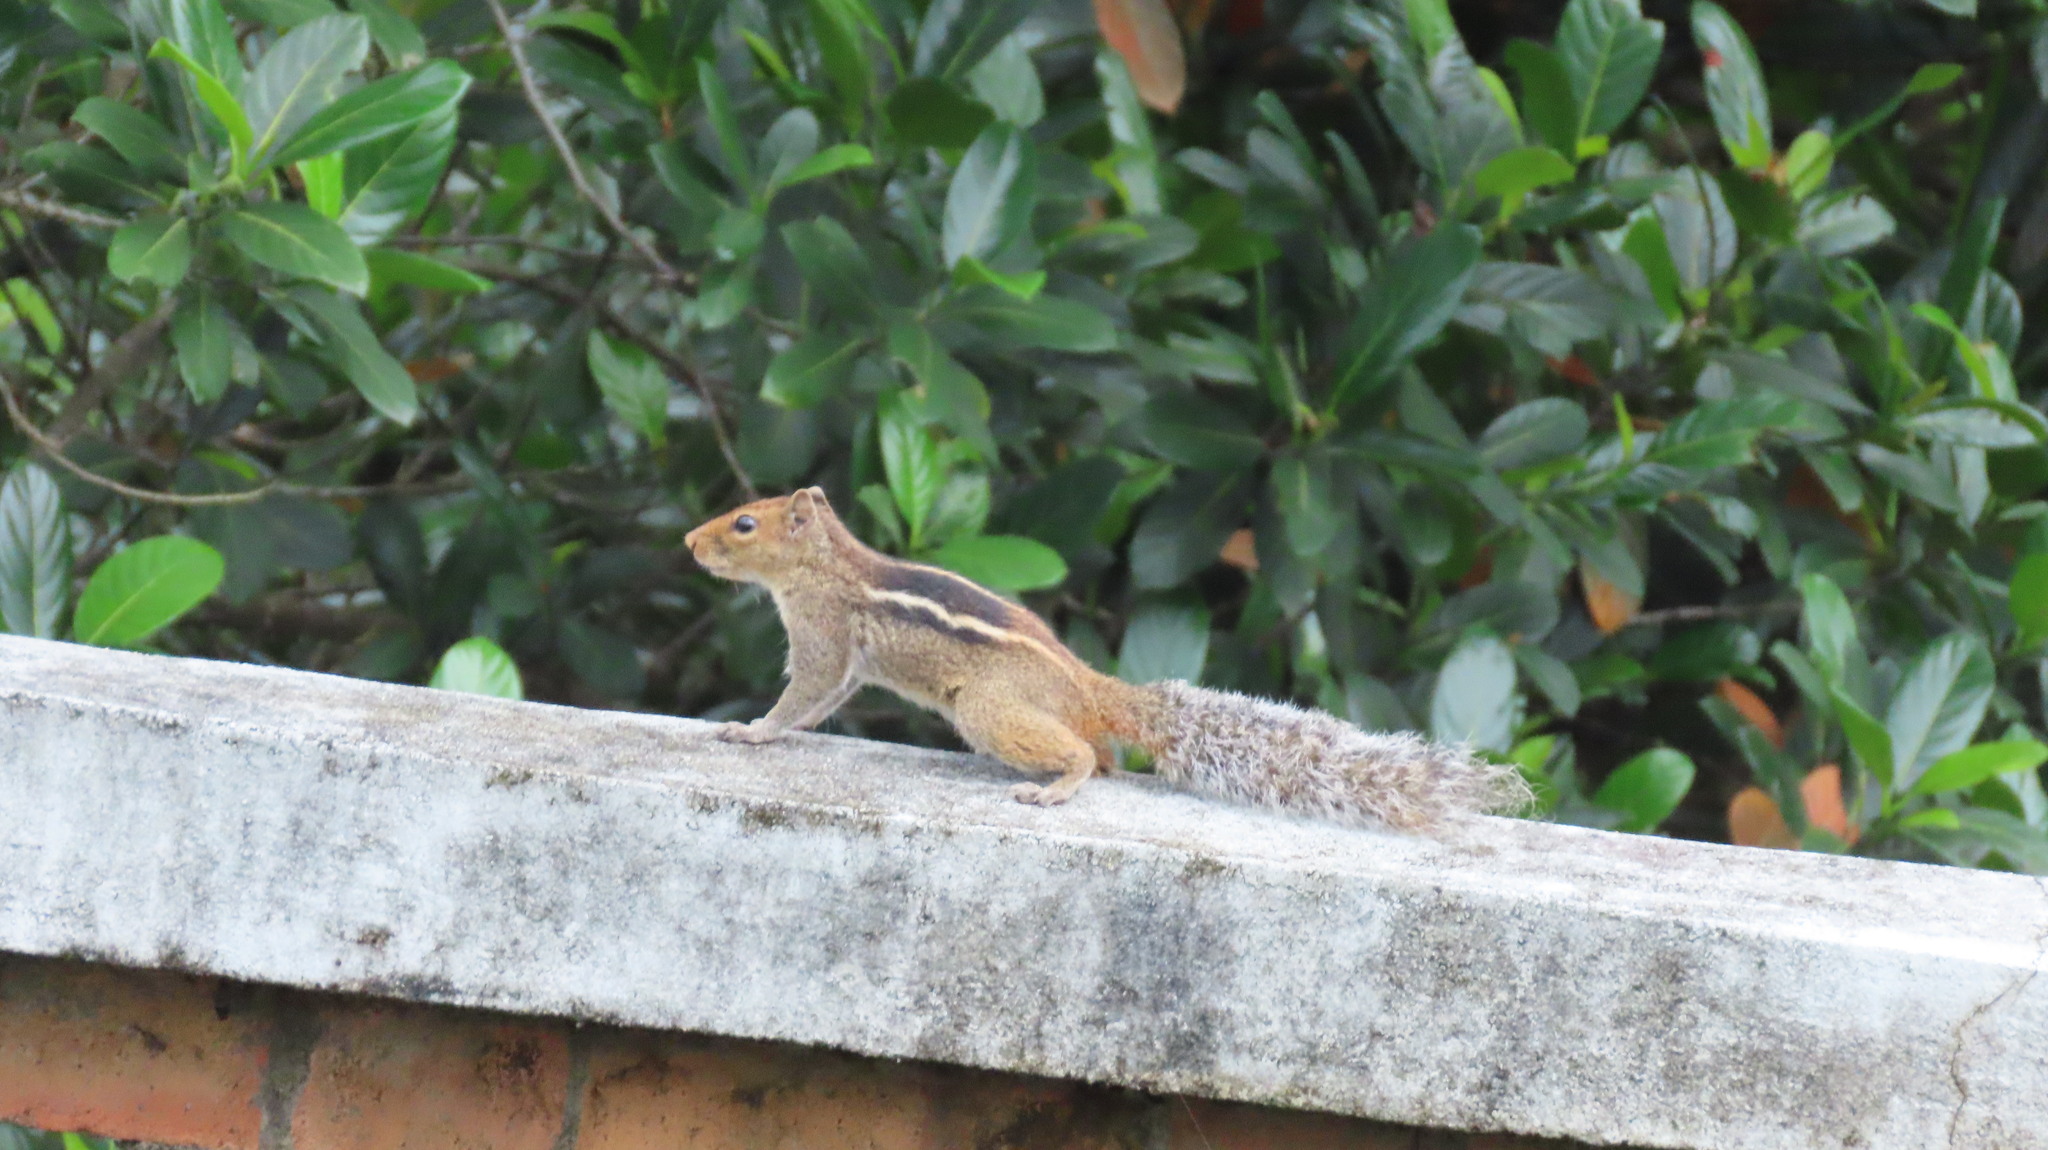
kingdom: Animalia
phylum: Chordata
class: Mammalia
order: Rodentia
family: Sciuridae
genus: Funambulus
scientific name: Funambulus tristriatus
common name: Jungle palm squirrel
